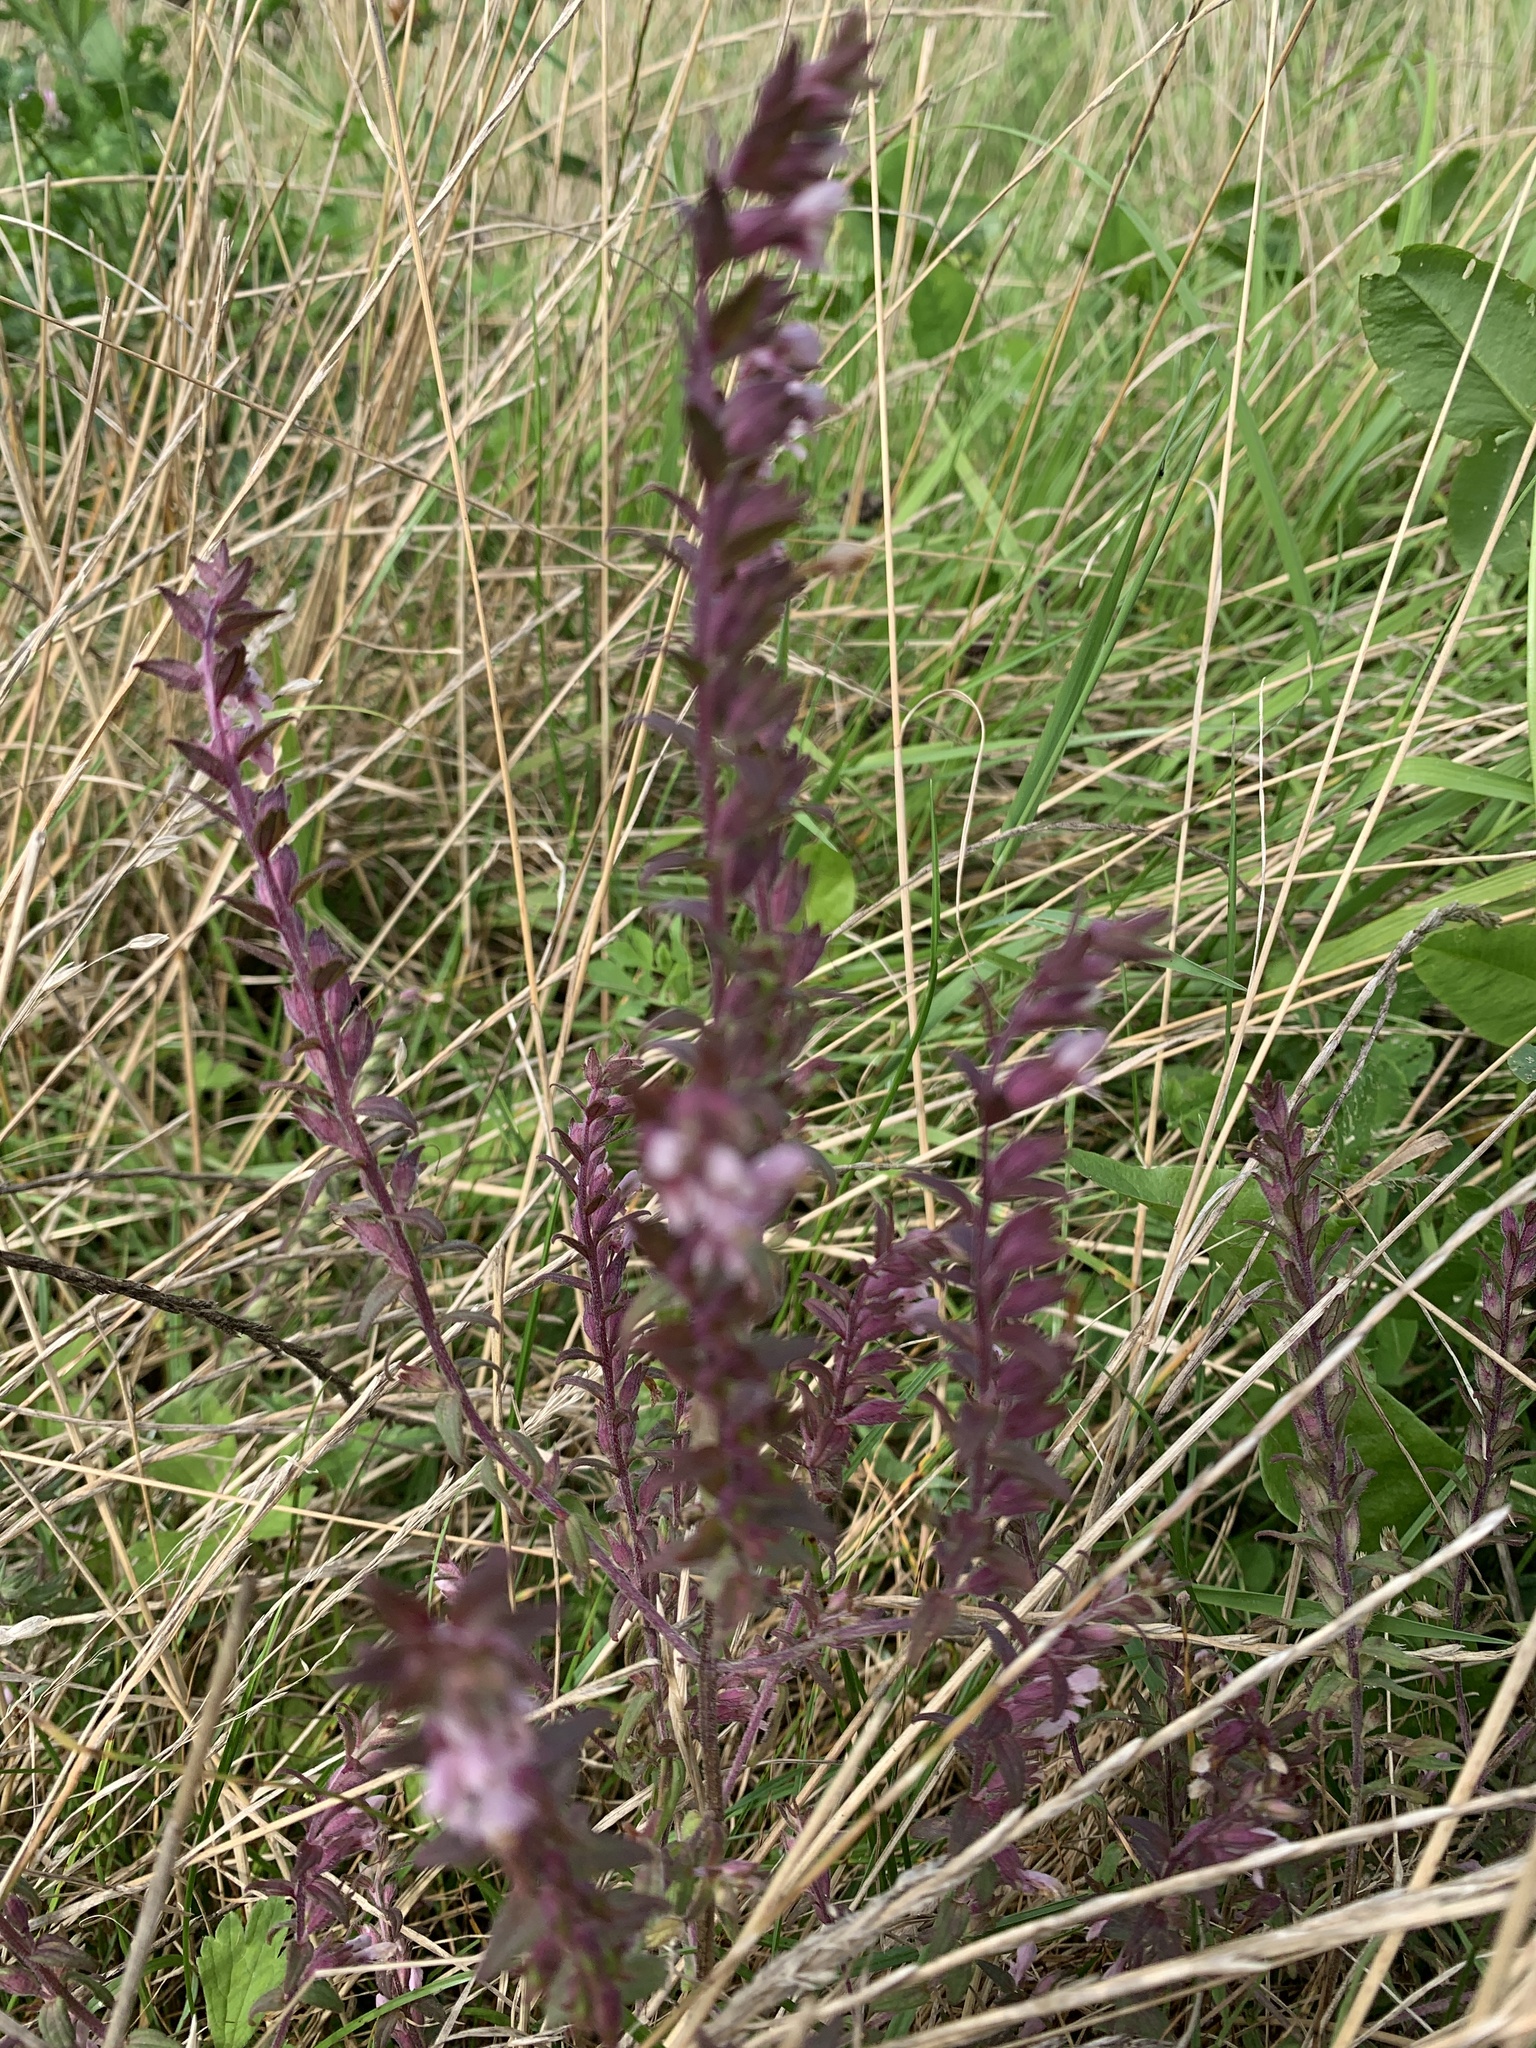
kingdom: Plantae
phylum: Tracheophyta
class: Magnoliopsida
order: Lamiales
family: Orobanchaceae
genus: Odontites
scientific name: Odontites vernus
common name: Red bartsia
